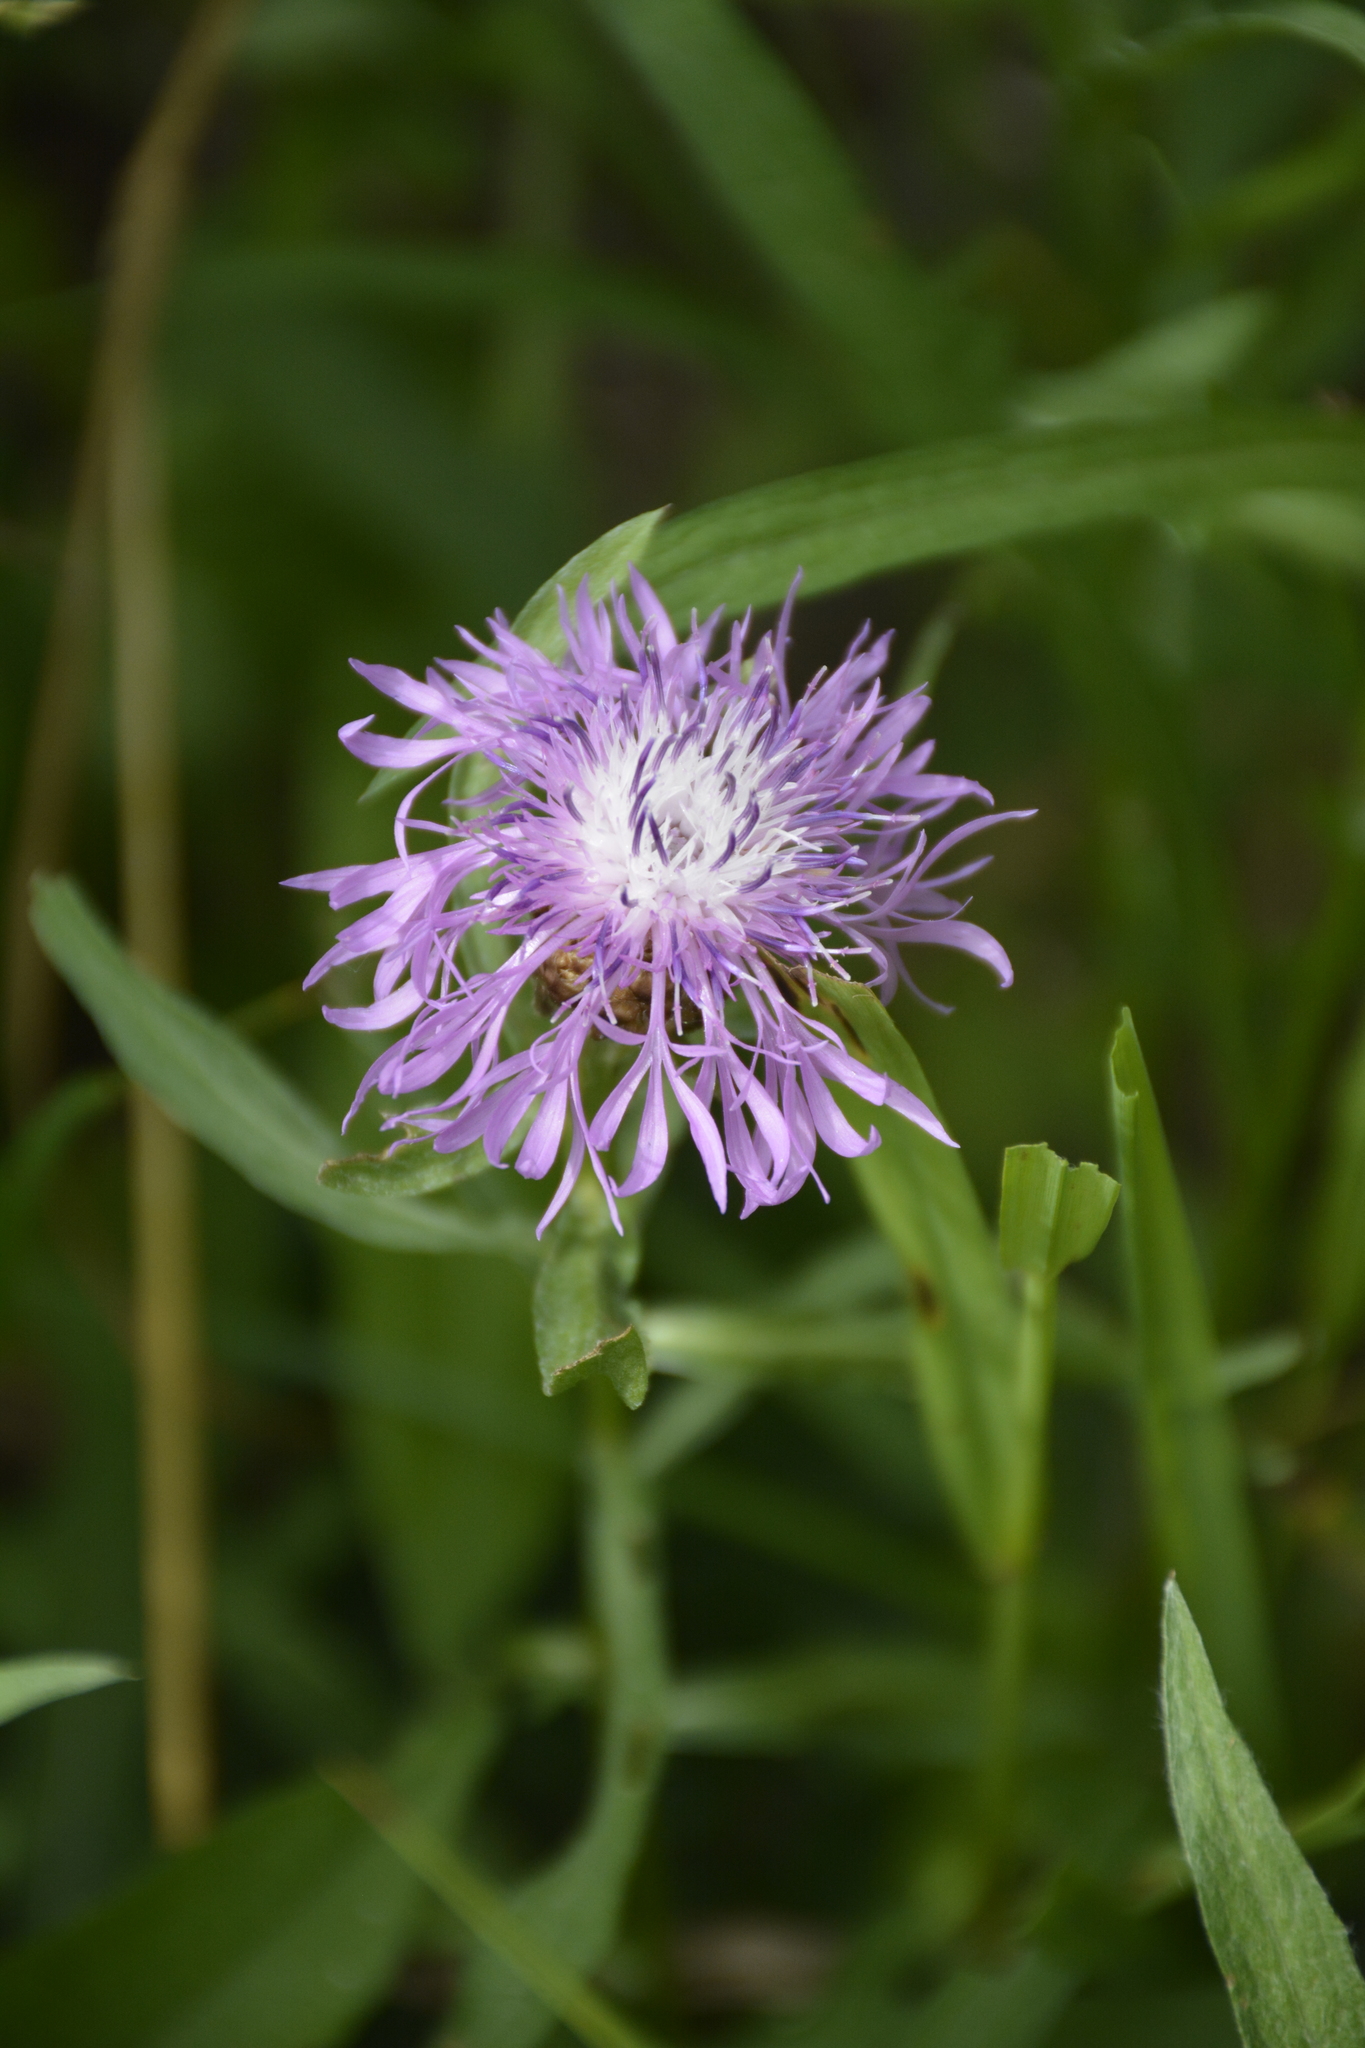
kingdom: Plantae
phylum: Tracheophyta
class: Magnoliopsida
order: Asterales
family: Asteraceae
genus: Centaurea
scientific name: Centaurea jacea
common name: Brown knapweed
